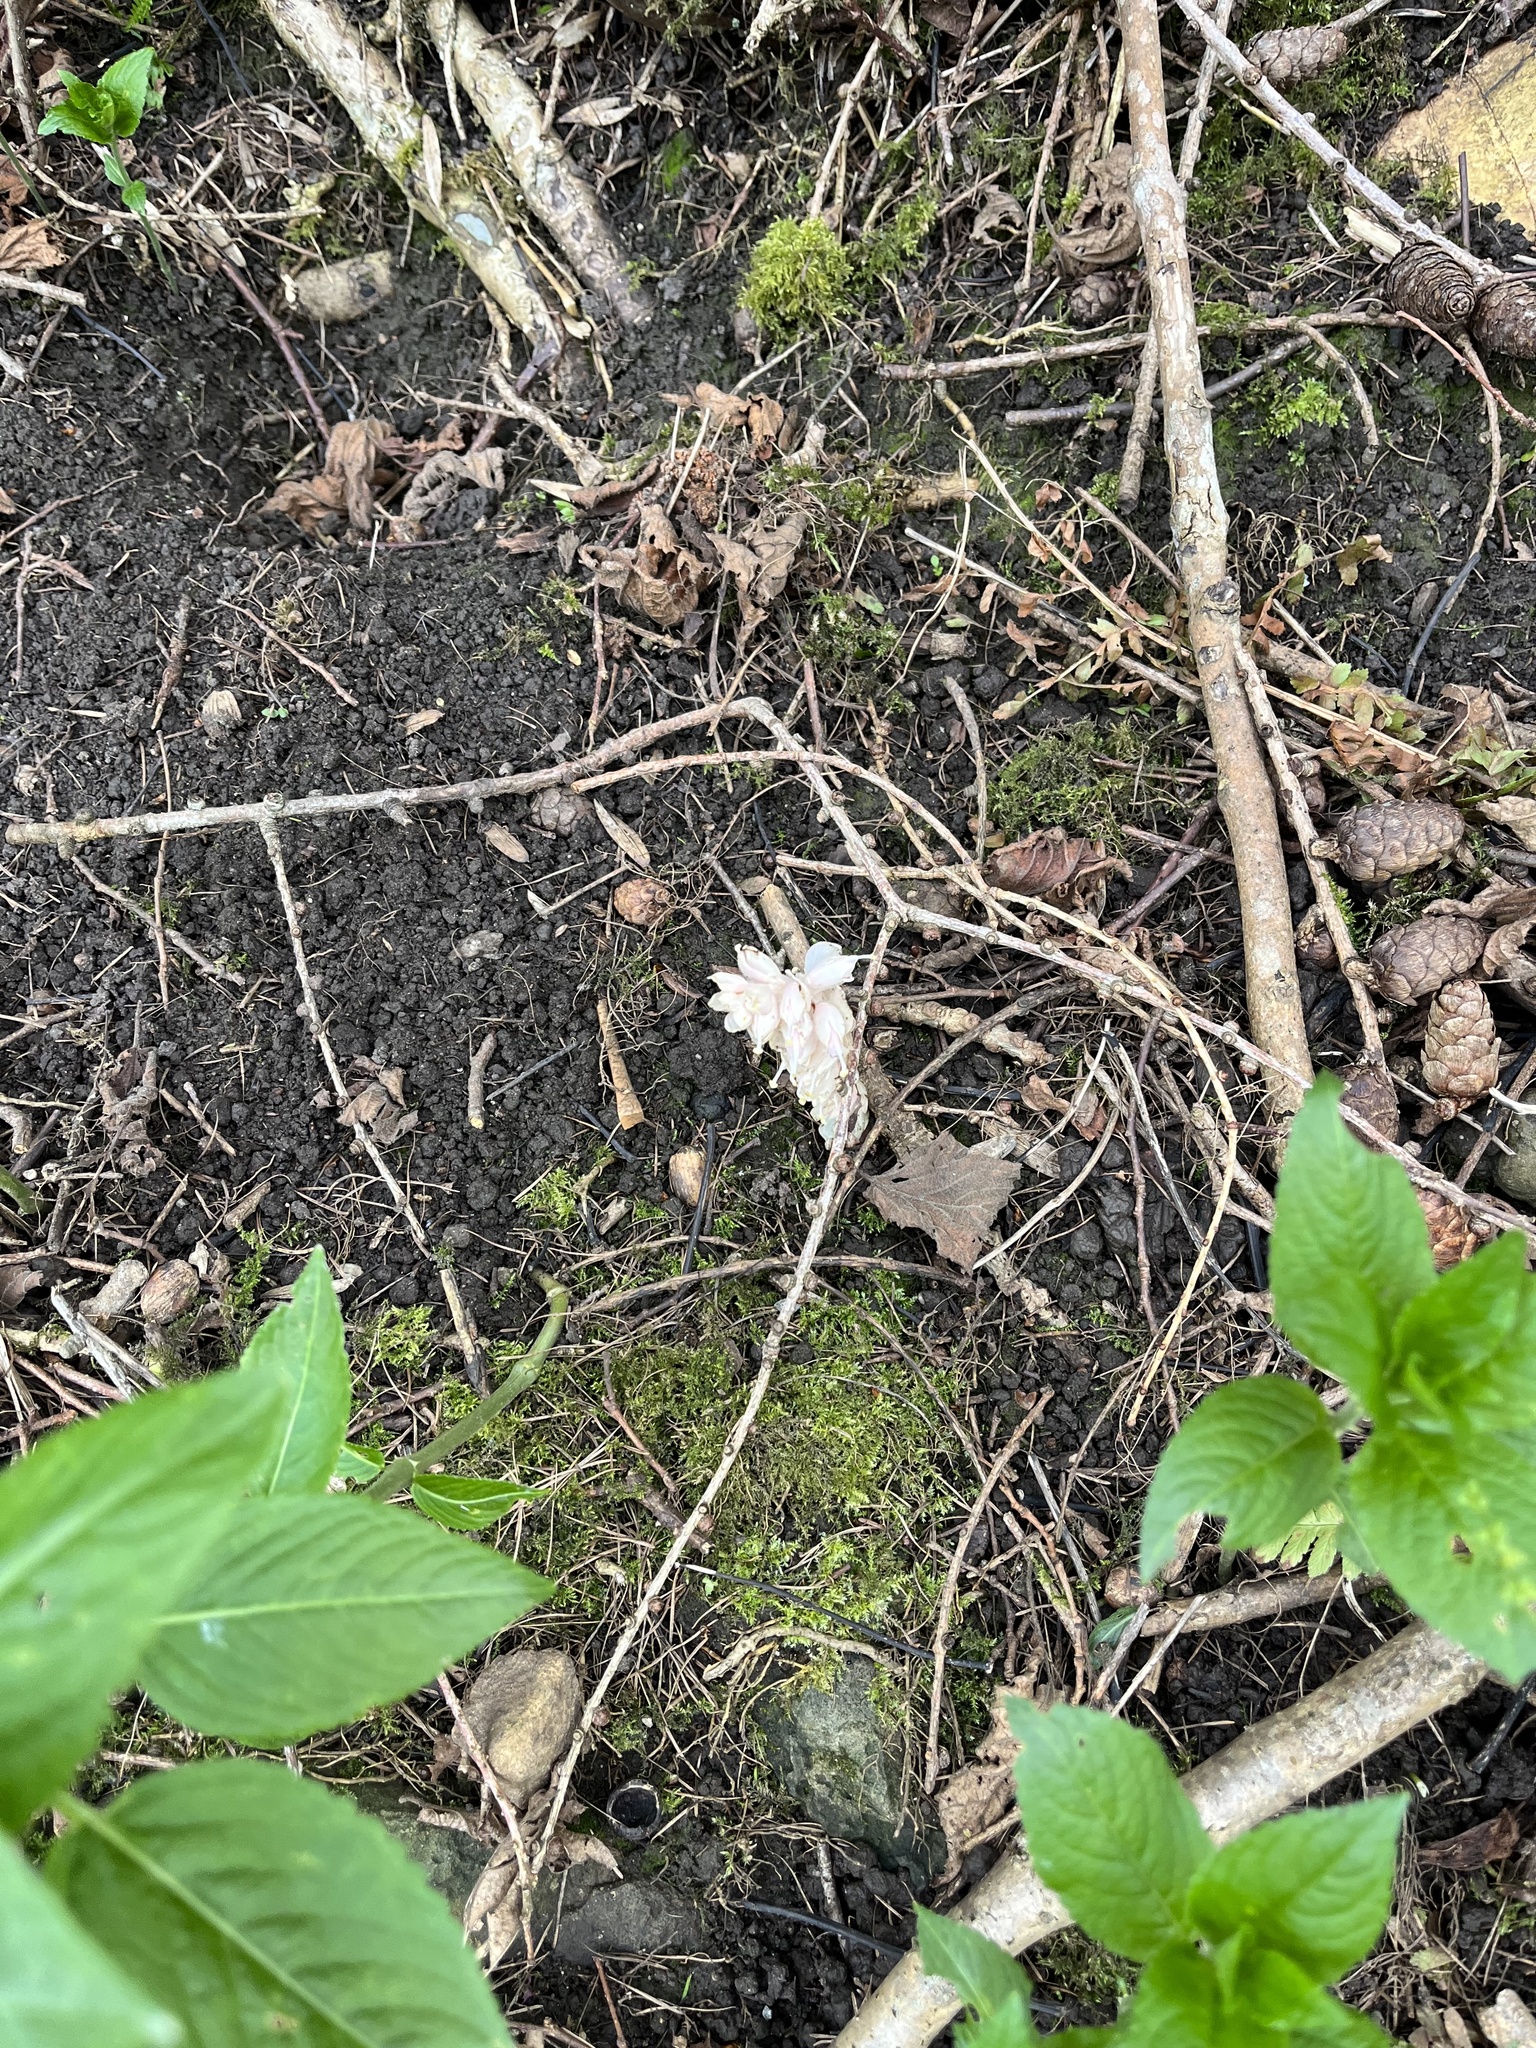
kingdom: Plantae
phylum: Tracheophyta
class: Magnoliopsida
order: Lamiales
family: Orobanchaceae
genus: Lathraea
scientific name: Lathraea squamaria
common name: Toothwort
